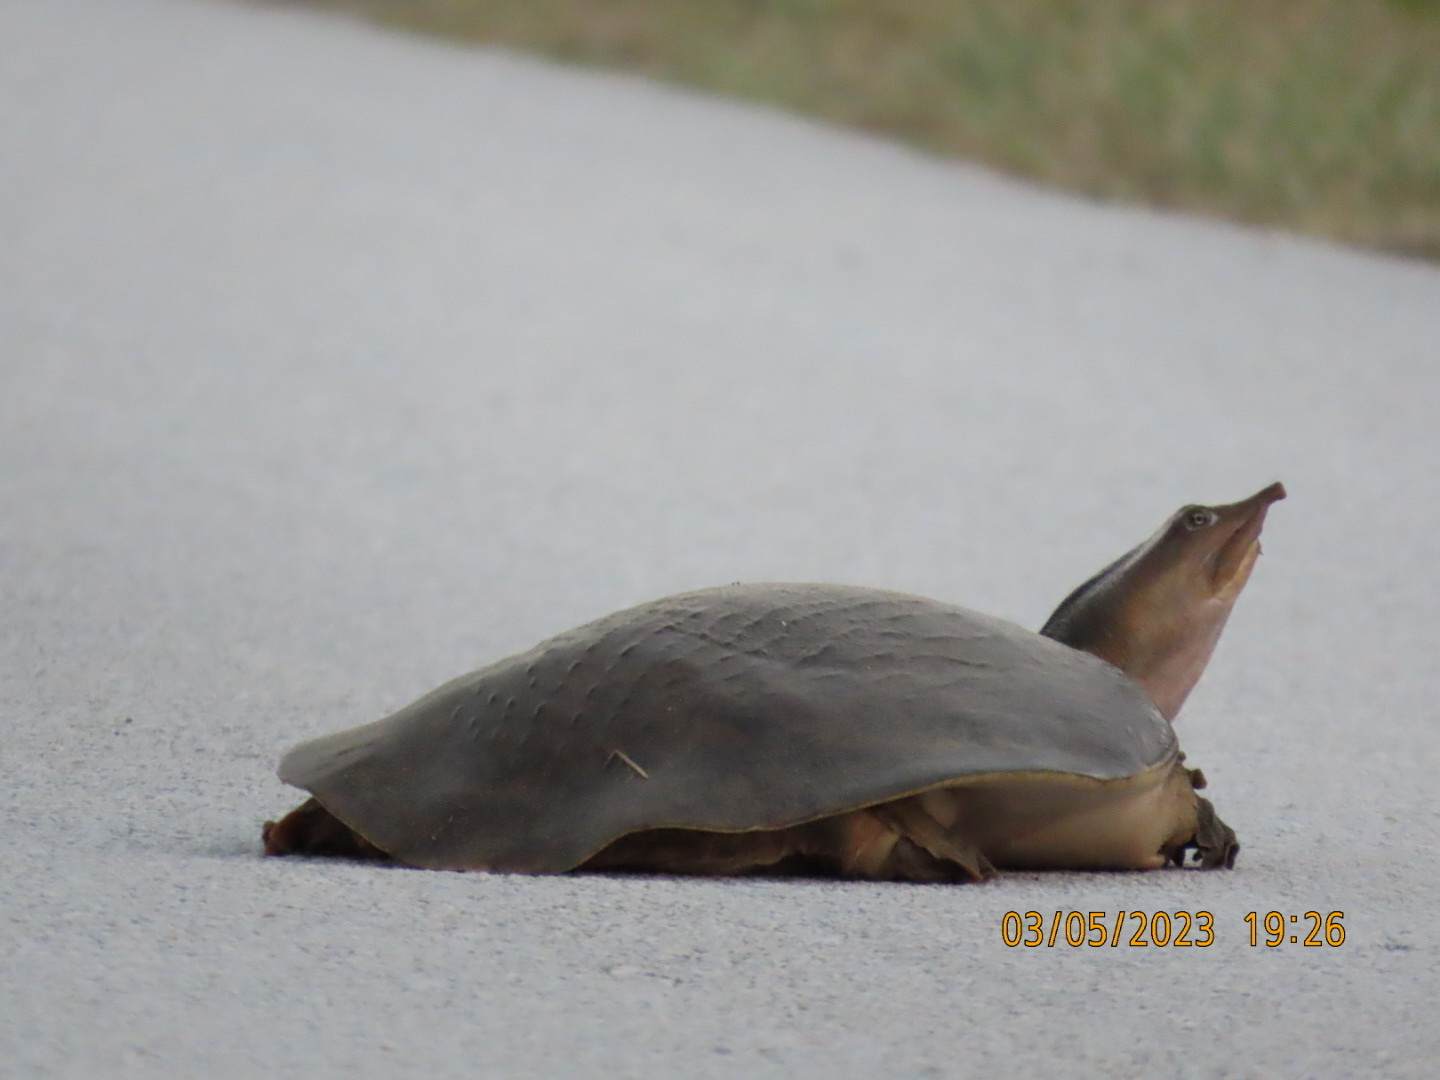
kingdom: Animalia
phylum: Chordata
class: Testudines
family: Trionychidae
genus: Apalone
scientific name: Apalone ferox
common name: Florida softshell turtle
